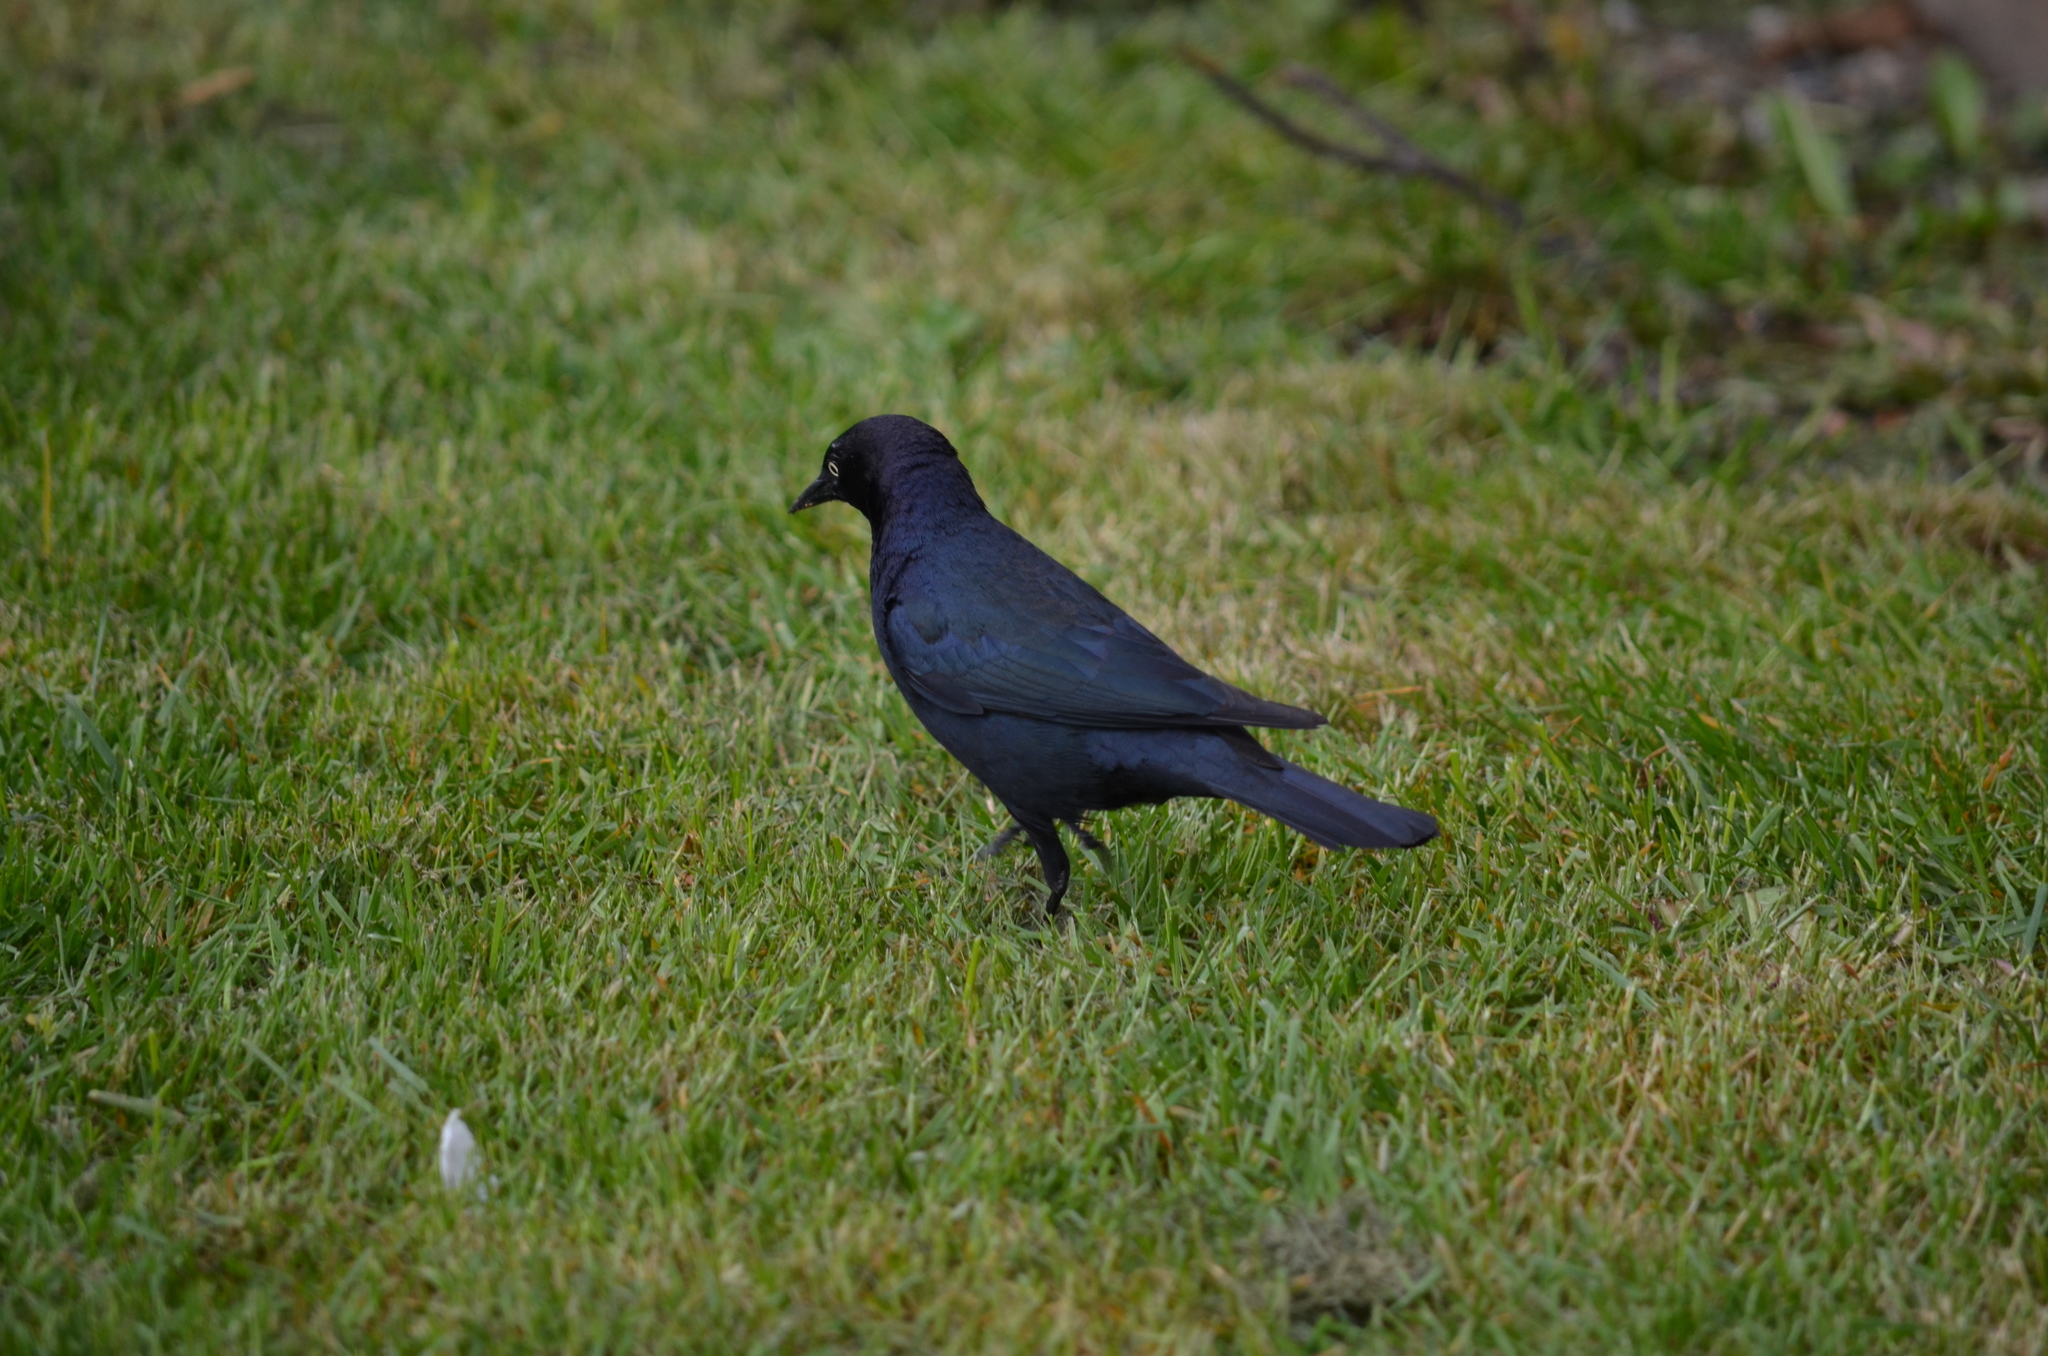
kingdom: Animalia
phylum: Chordata
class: Aves
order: Passeriformes
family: Icteridae
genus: Euphagus
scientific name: Euphagus cyanocephalus
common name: Brewer's blackbird
